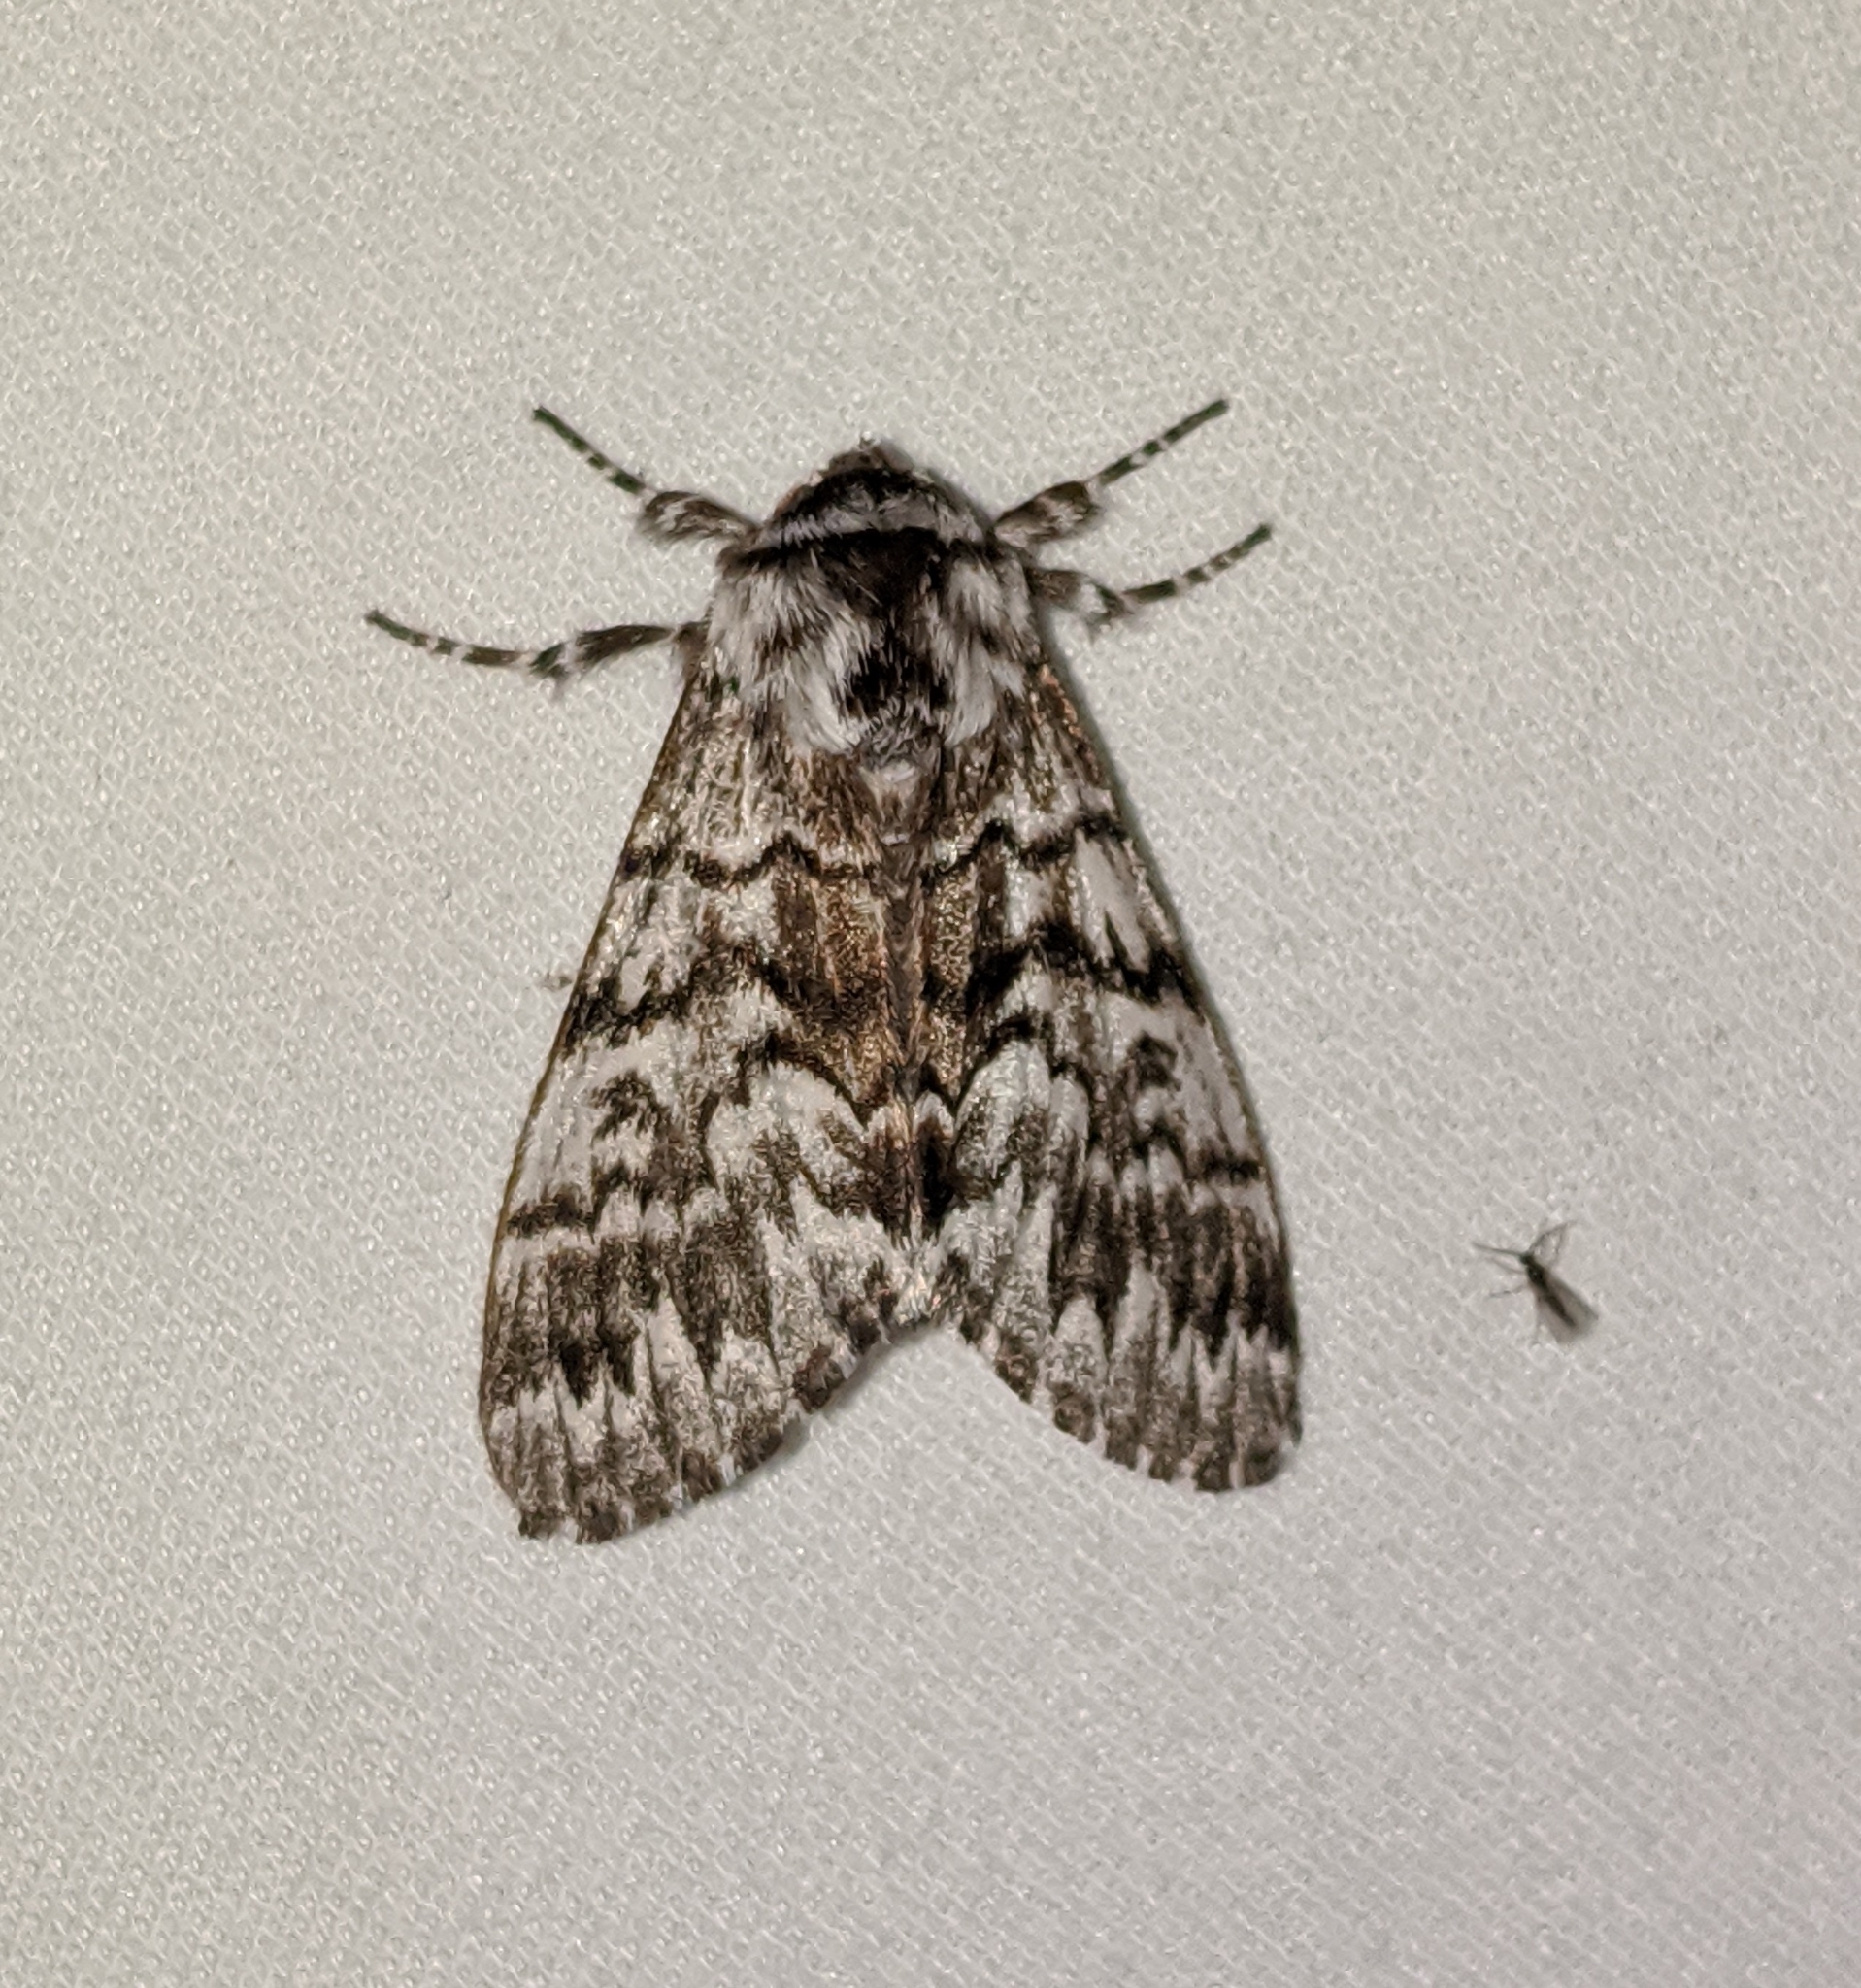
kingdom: Animalia
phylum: Arthropoda
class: Insecta
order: Lepidoptera
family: Noctuidae
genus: Panthea
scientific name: Panthea virginarius
